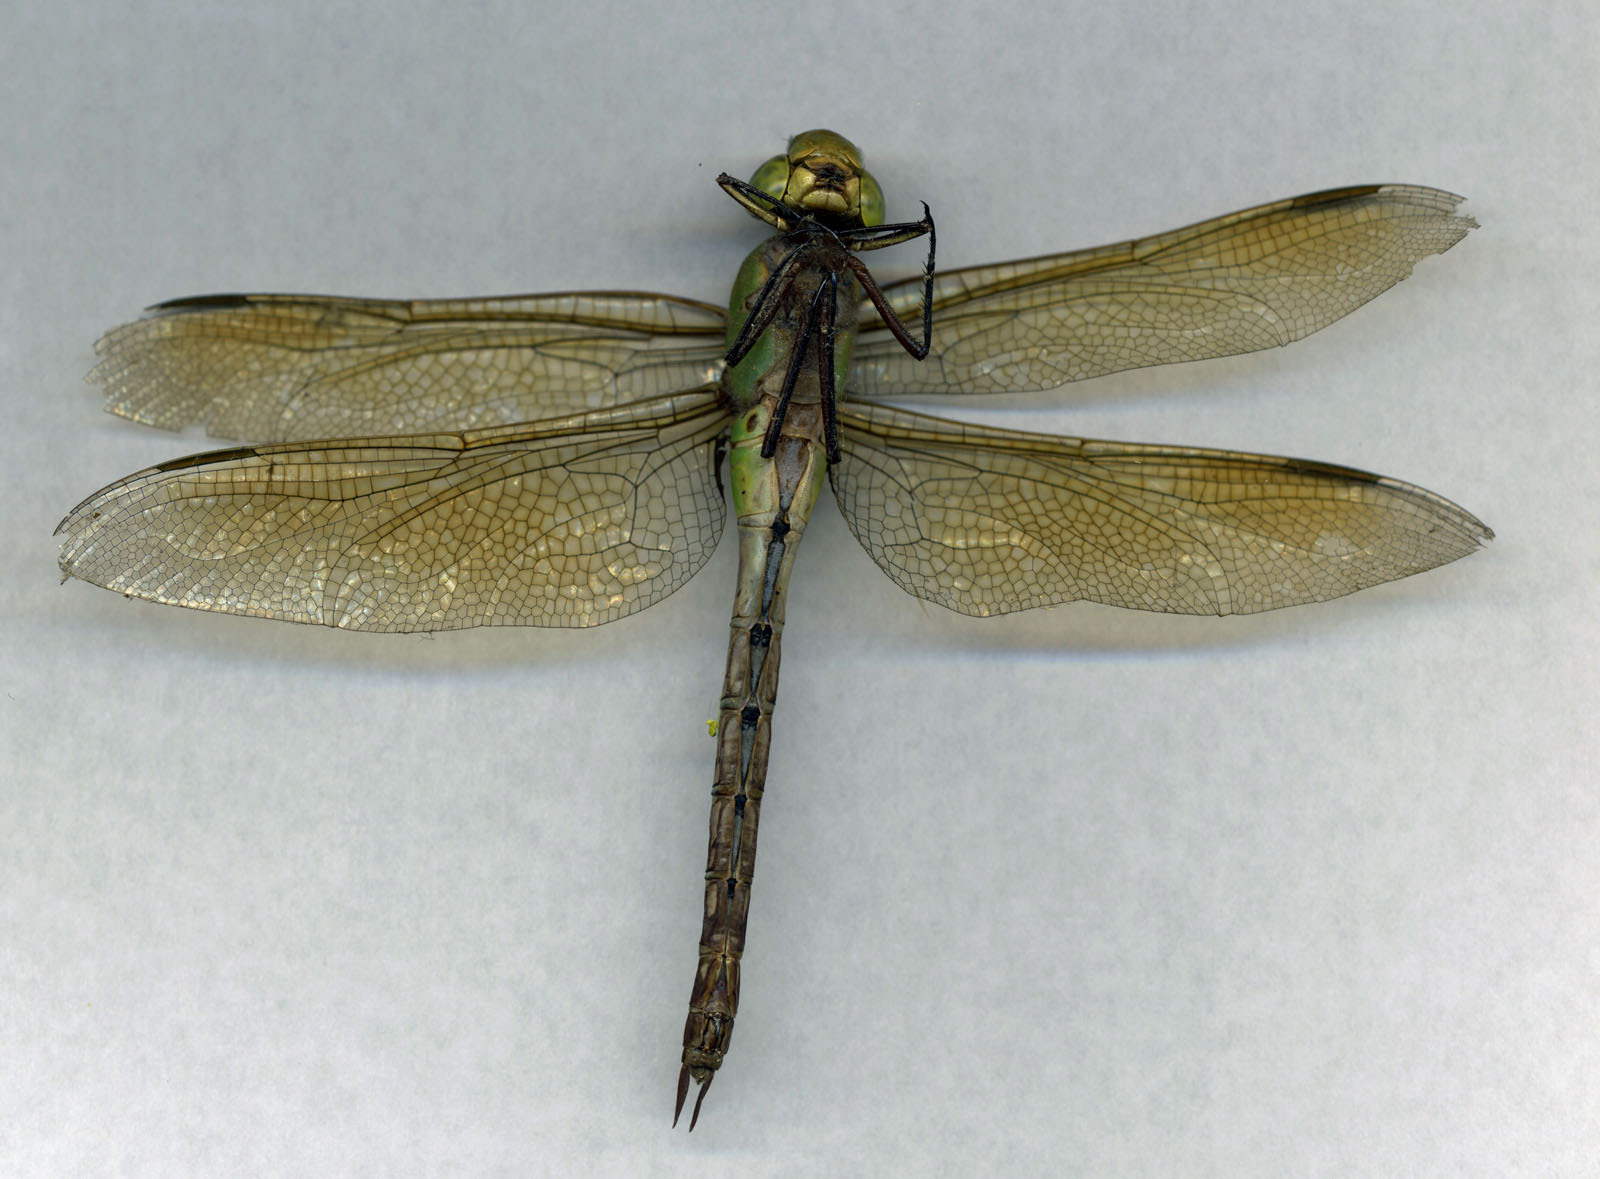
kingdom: Animalia
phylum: Arthropoda
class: Insecta
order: Odonata
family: Aeshnidae
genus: Anax
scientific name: Anax junius
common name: Common green darner
